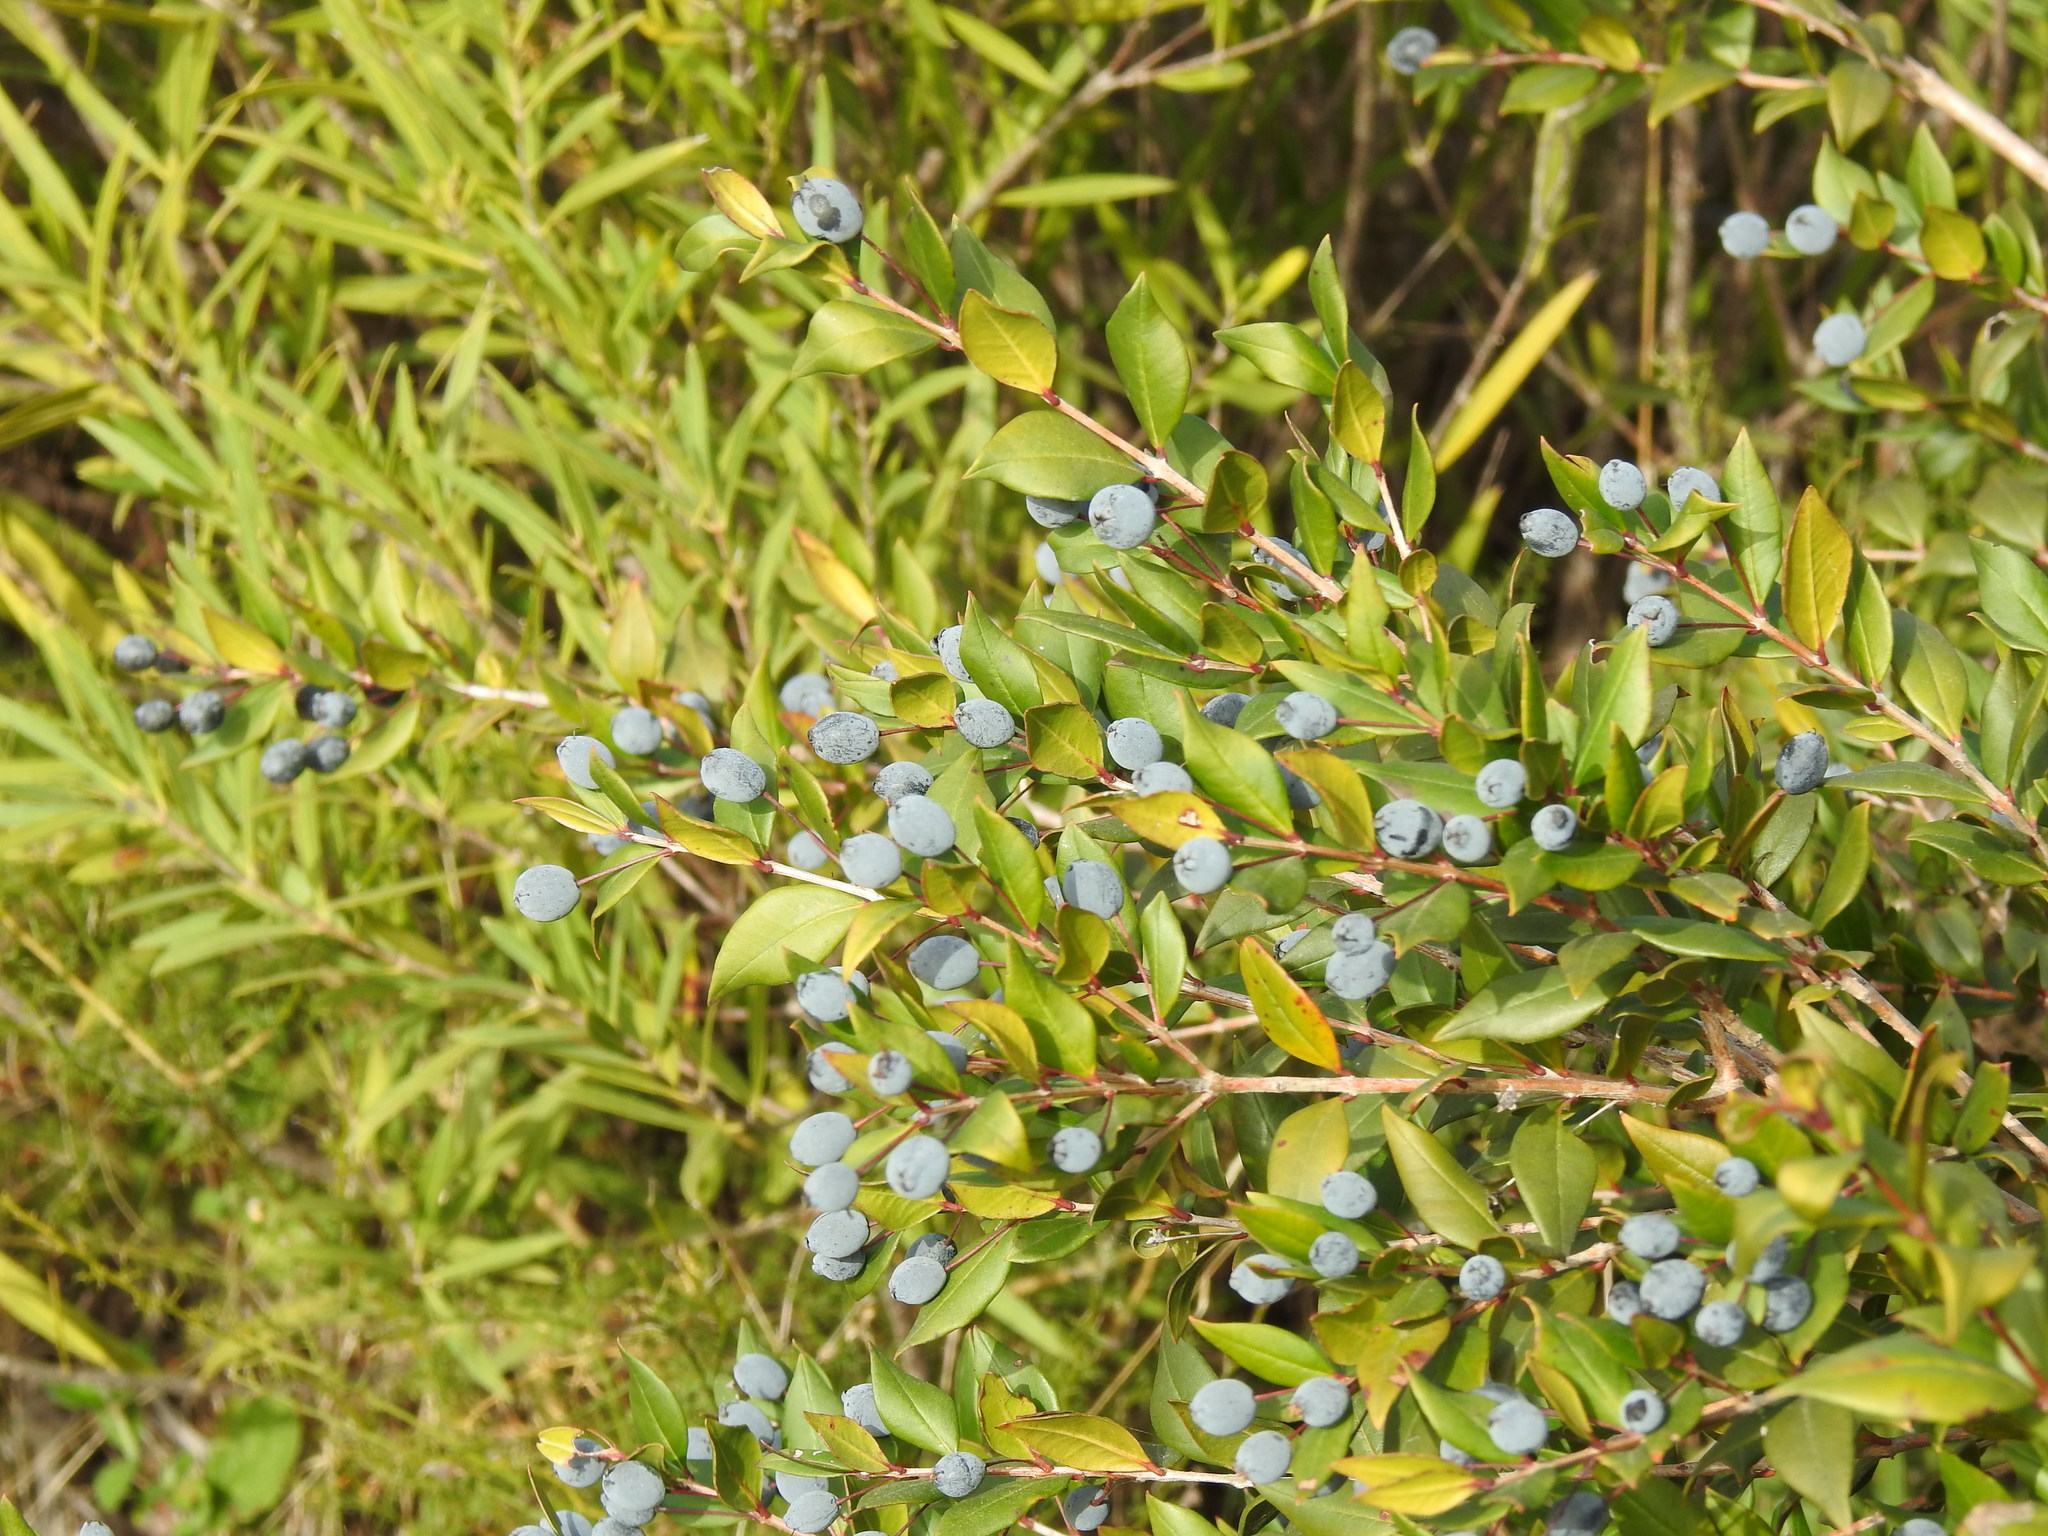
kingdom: Plantae
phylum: Tracheophyta
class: Magnoliopsida
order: Myrtales
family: Myrtaceae
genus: Myrtus
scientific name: Myrtus communis
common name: Myrtle
